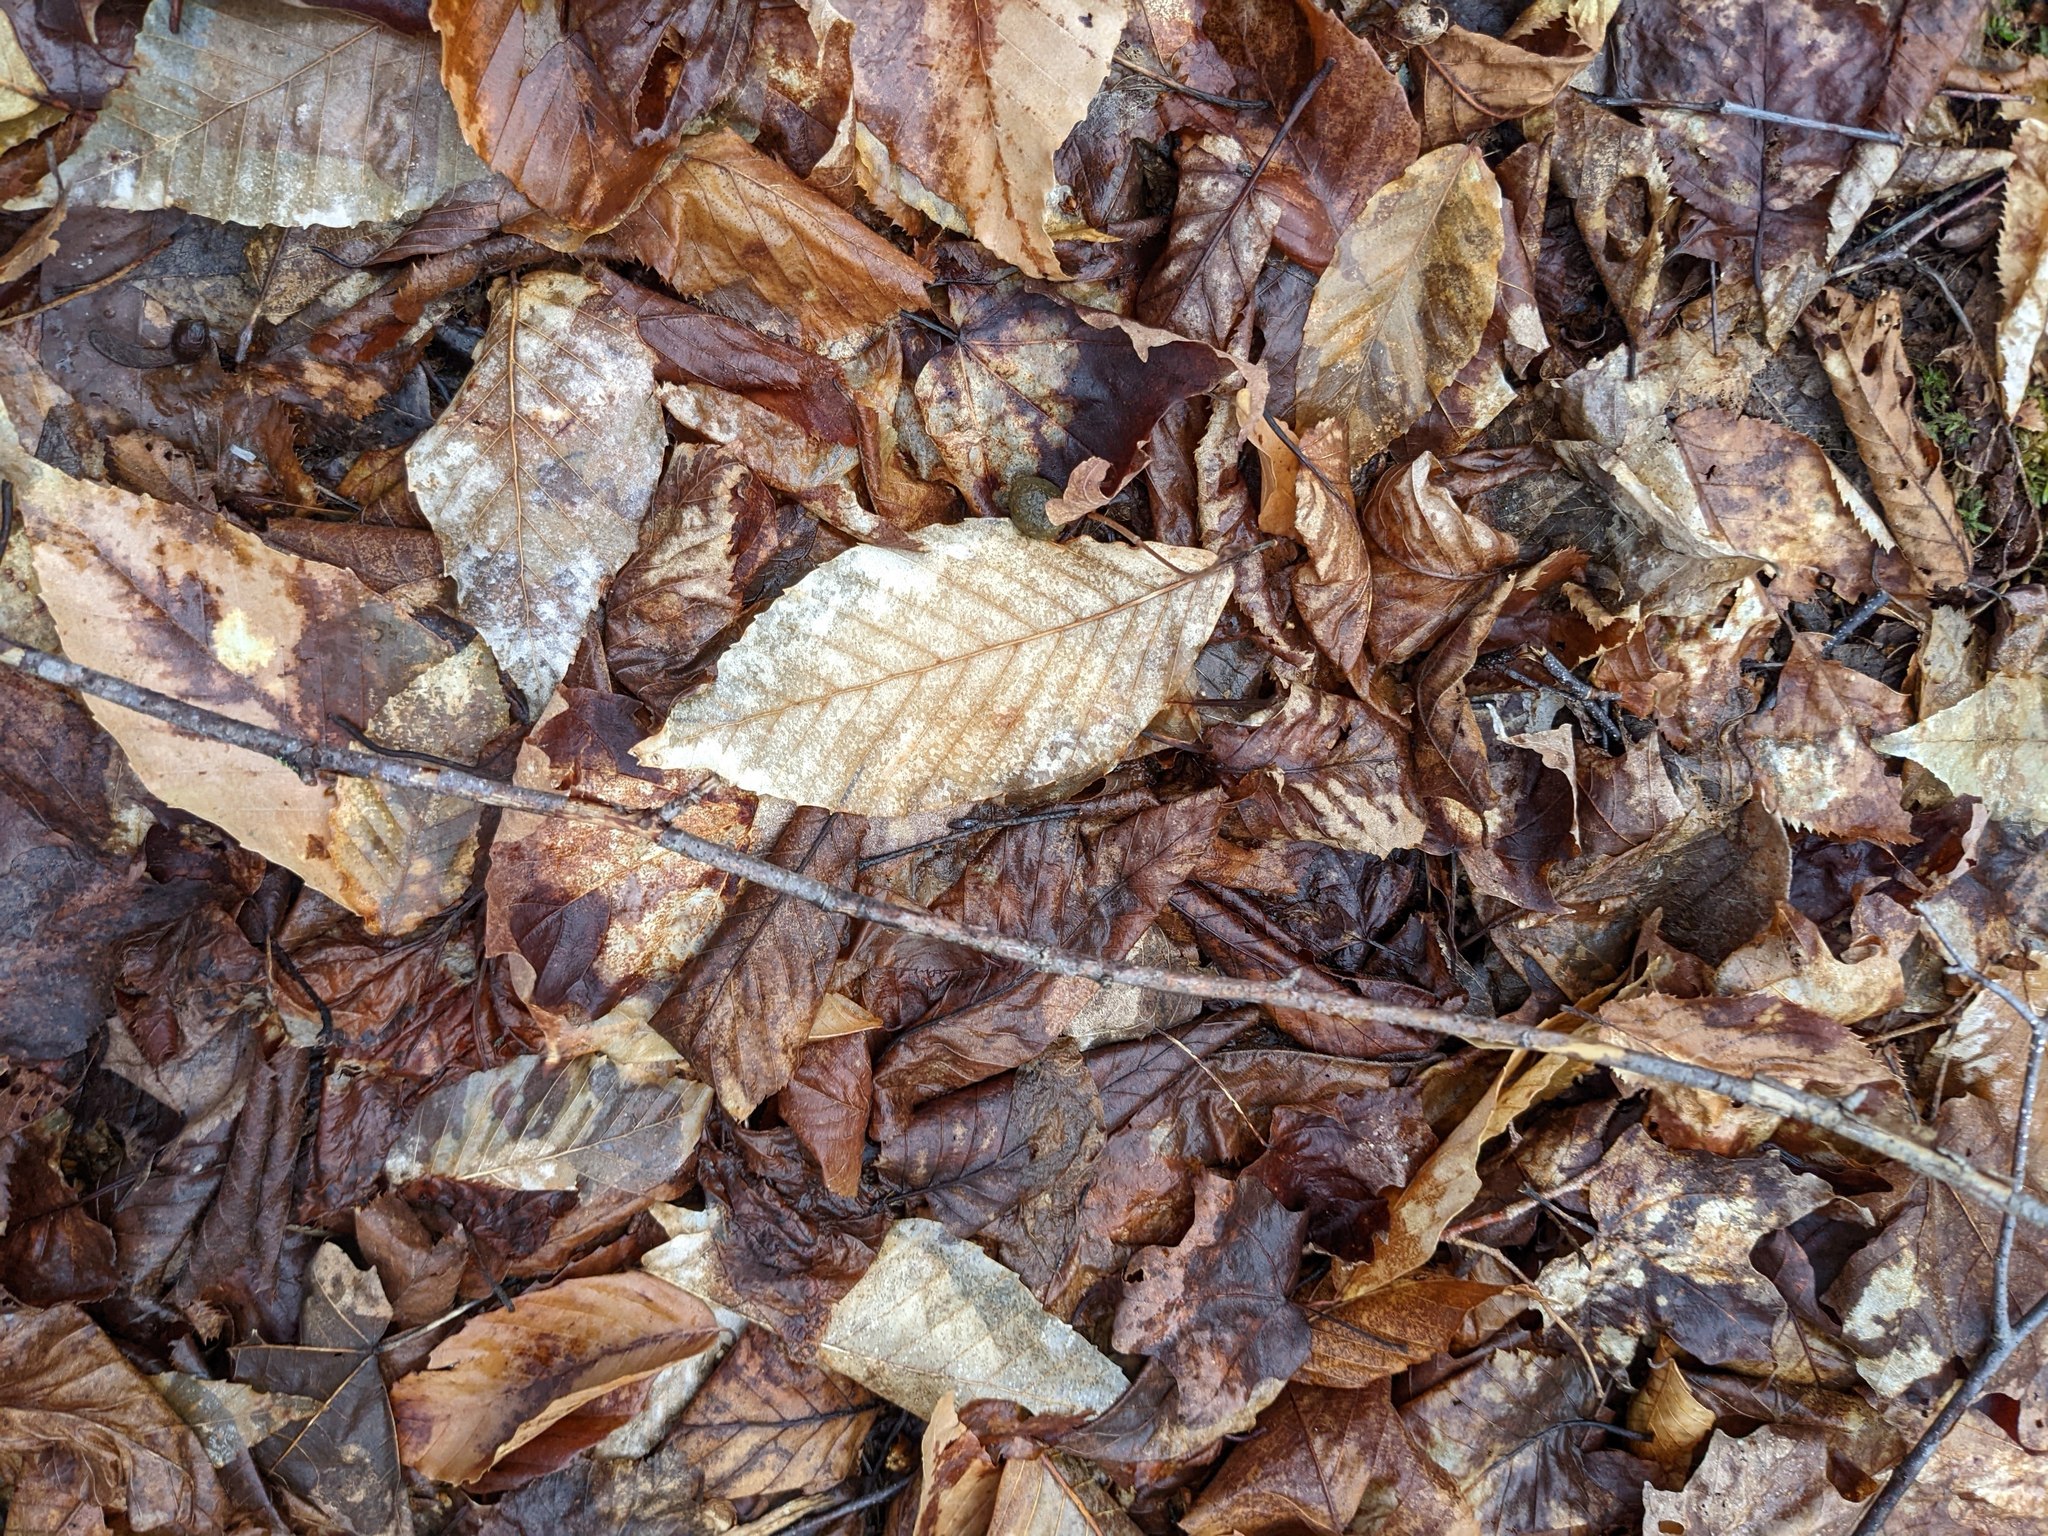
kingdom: Plantae
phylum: Tracheophyta
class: Magnoliopsida
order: Fagales
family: Fagaceae
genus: Fagus
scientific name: Fagus grandifolia
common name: American beech
